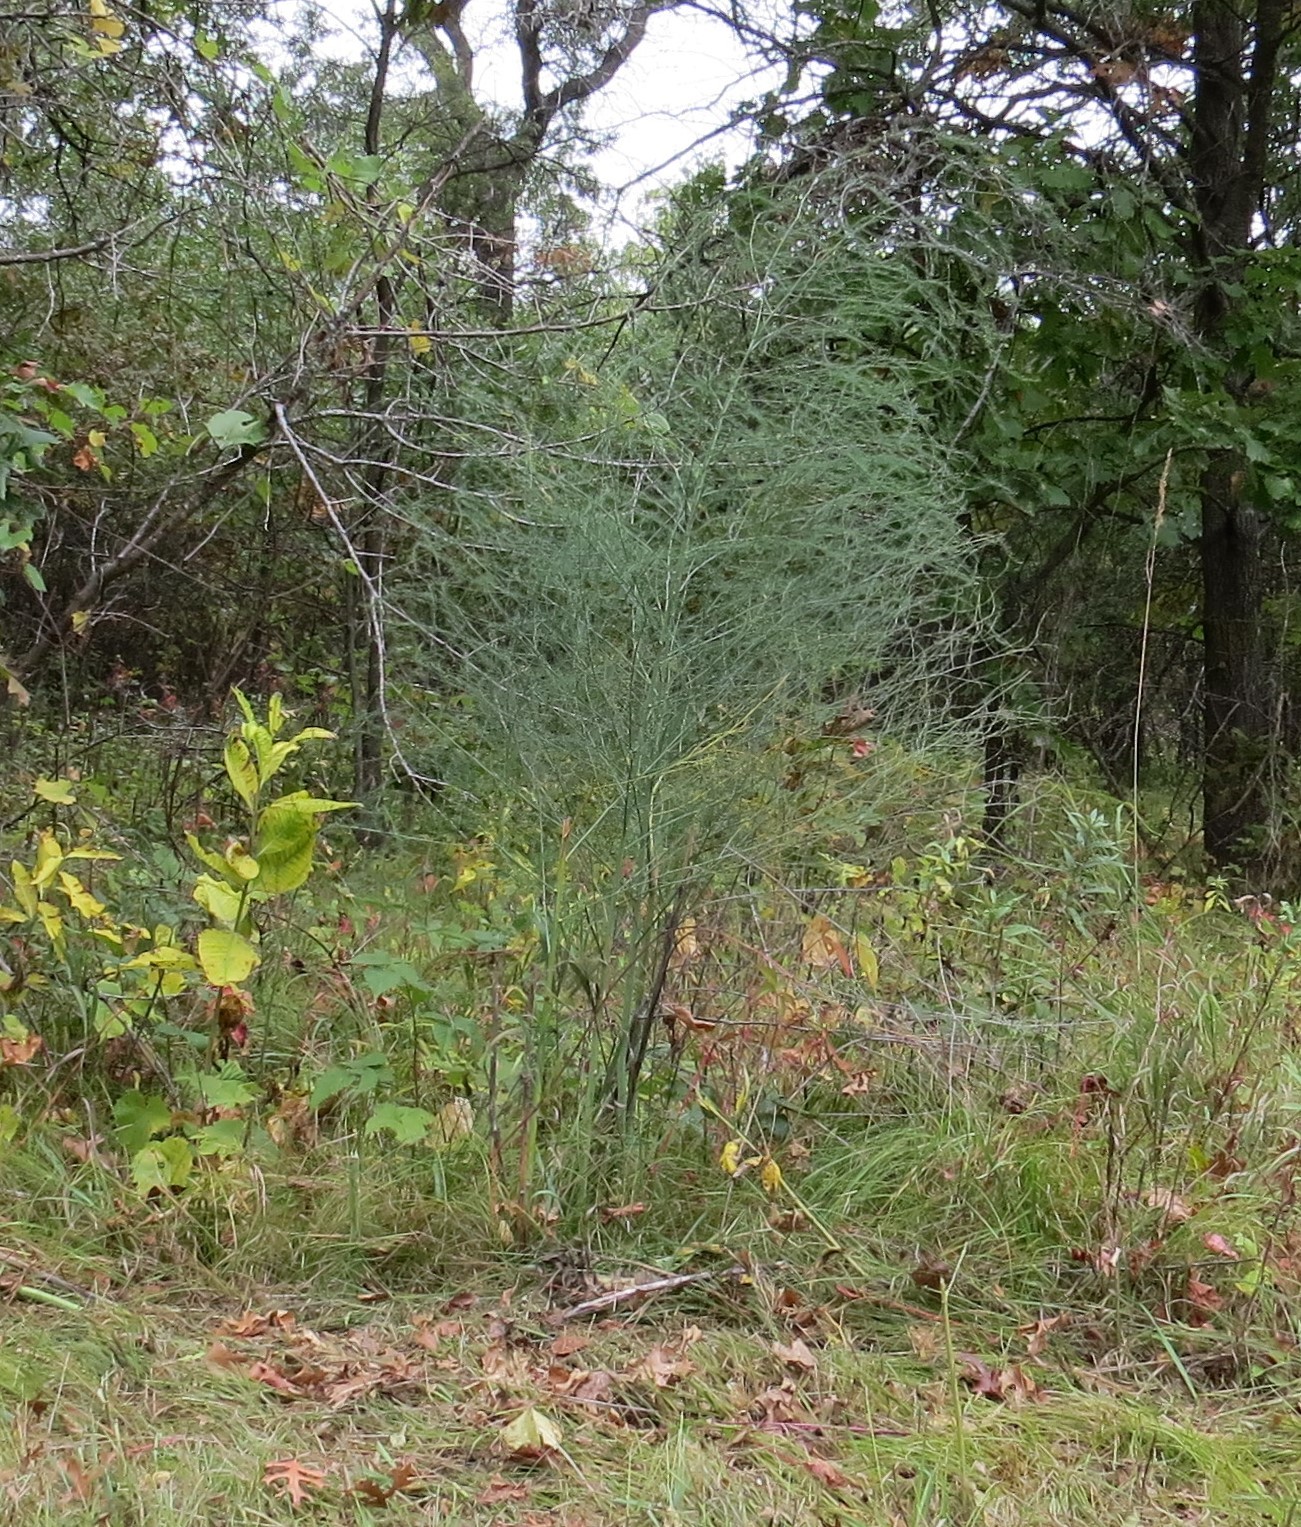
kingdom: Plantae
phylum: Tracheophyta
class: Liliopsida
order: Asparagales
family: Asparagaceae
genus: Asparagus
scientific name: Asparagus officinalis
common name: Garden asparagus
